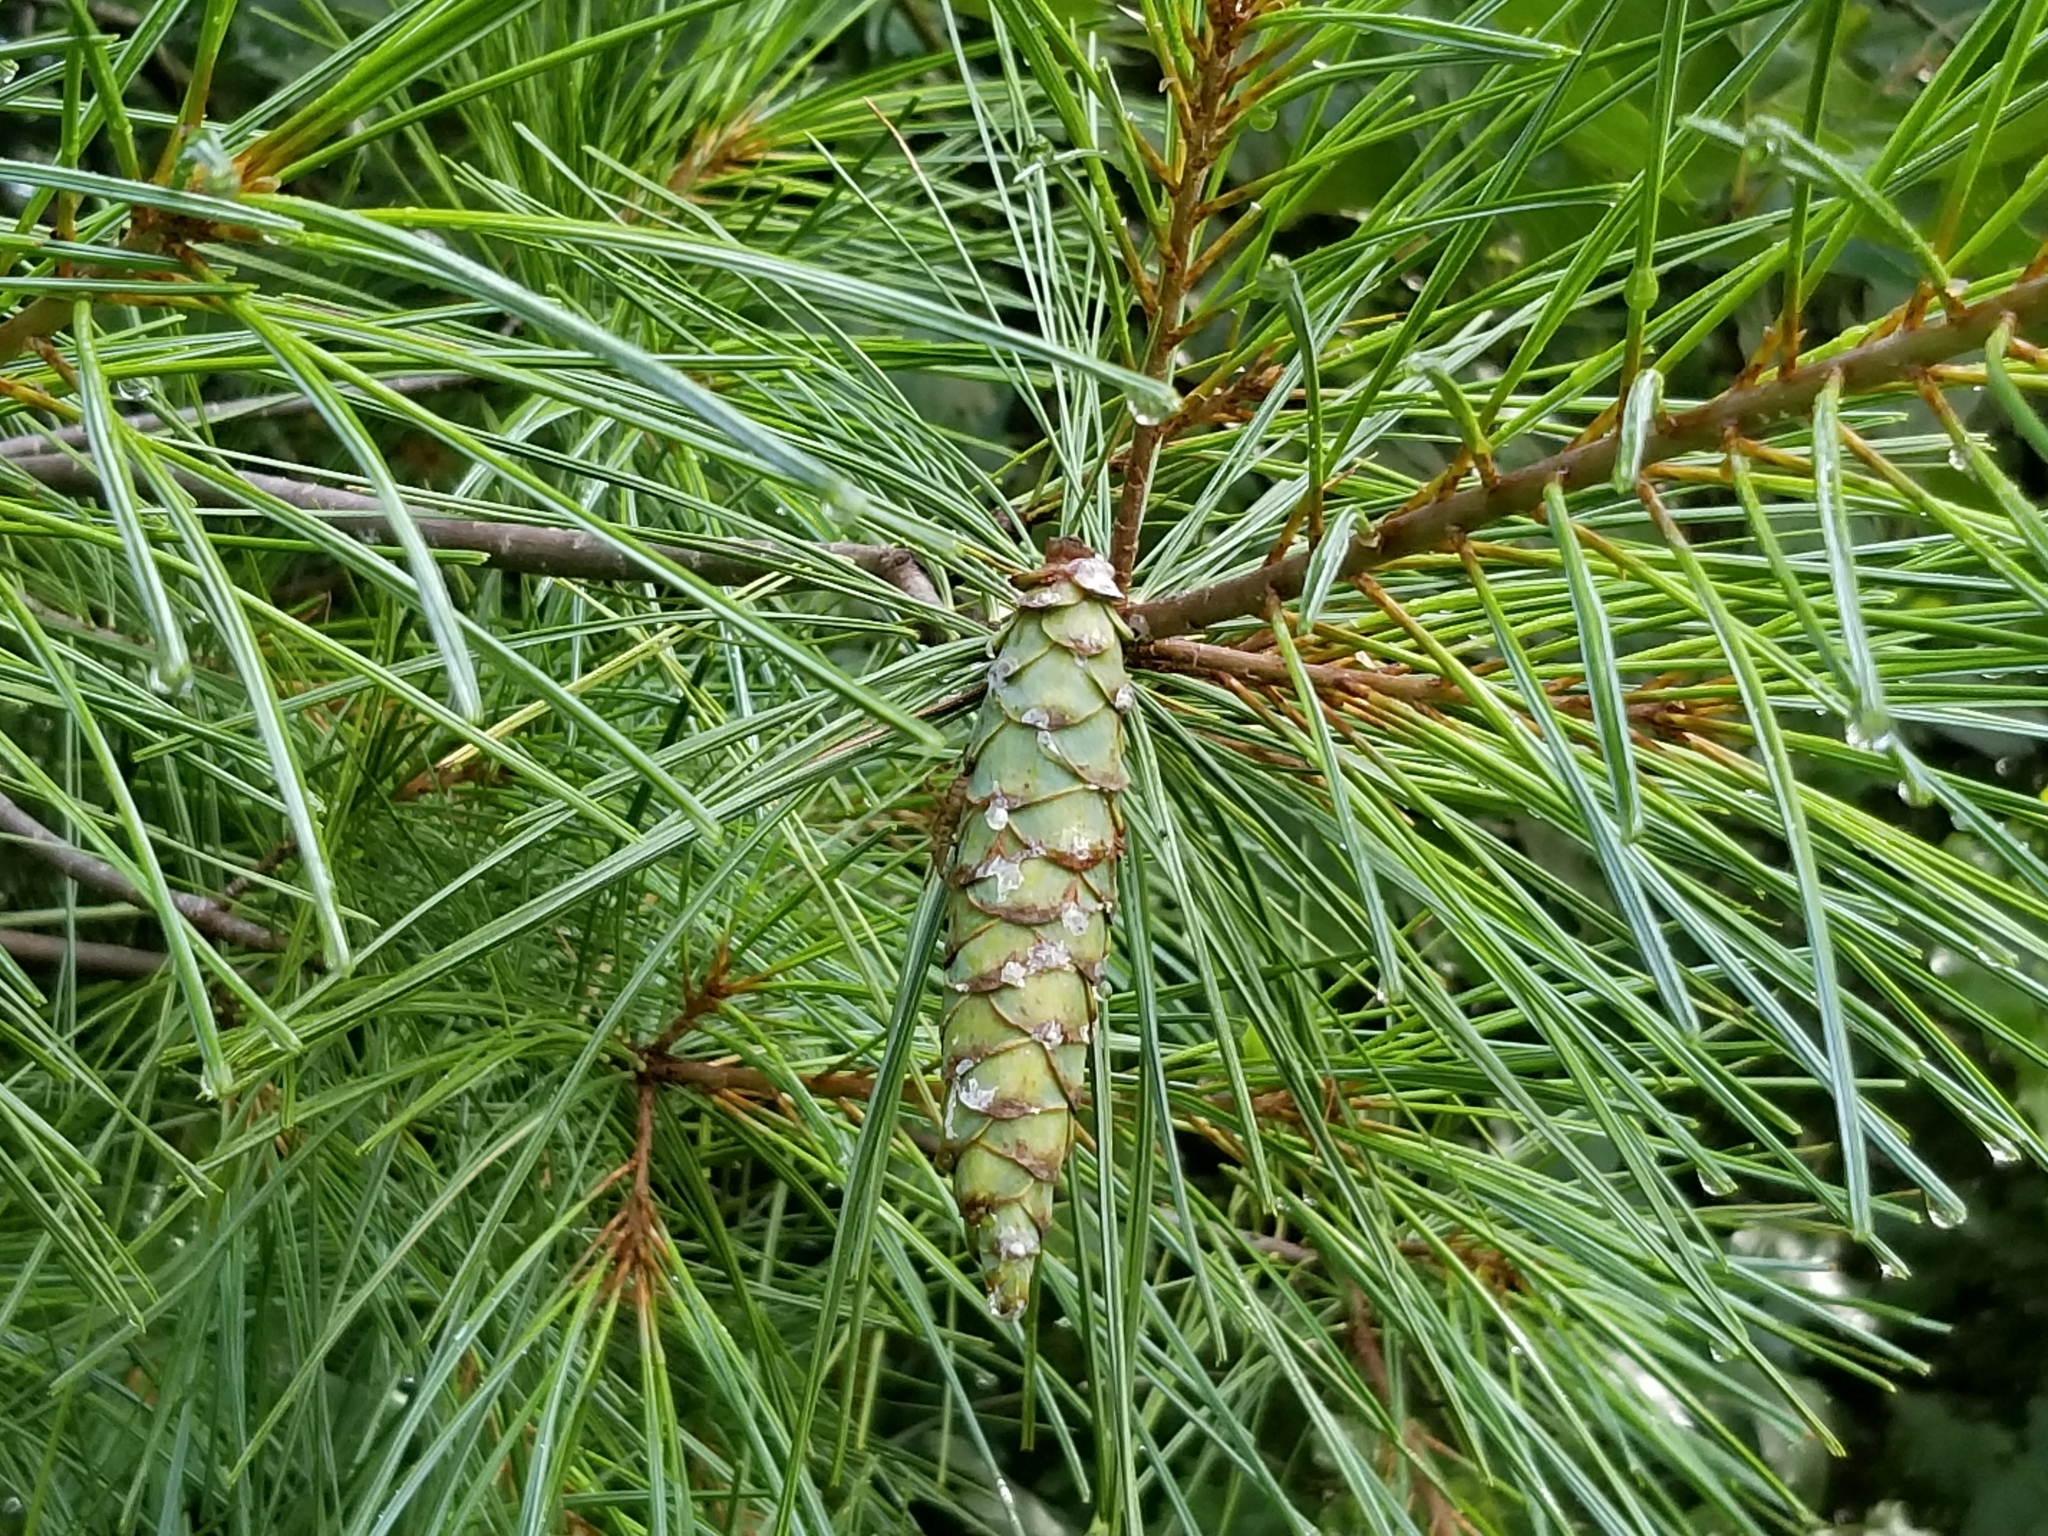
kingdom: Plantae
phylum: Tracheophyta
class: Pinopsida
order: Pinales
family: Pinaceae
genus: Pinus
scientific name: Pinus strobus
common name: Weymouth pine
